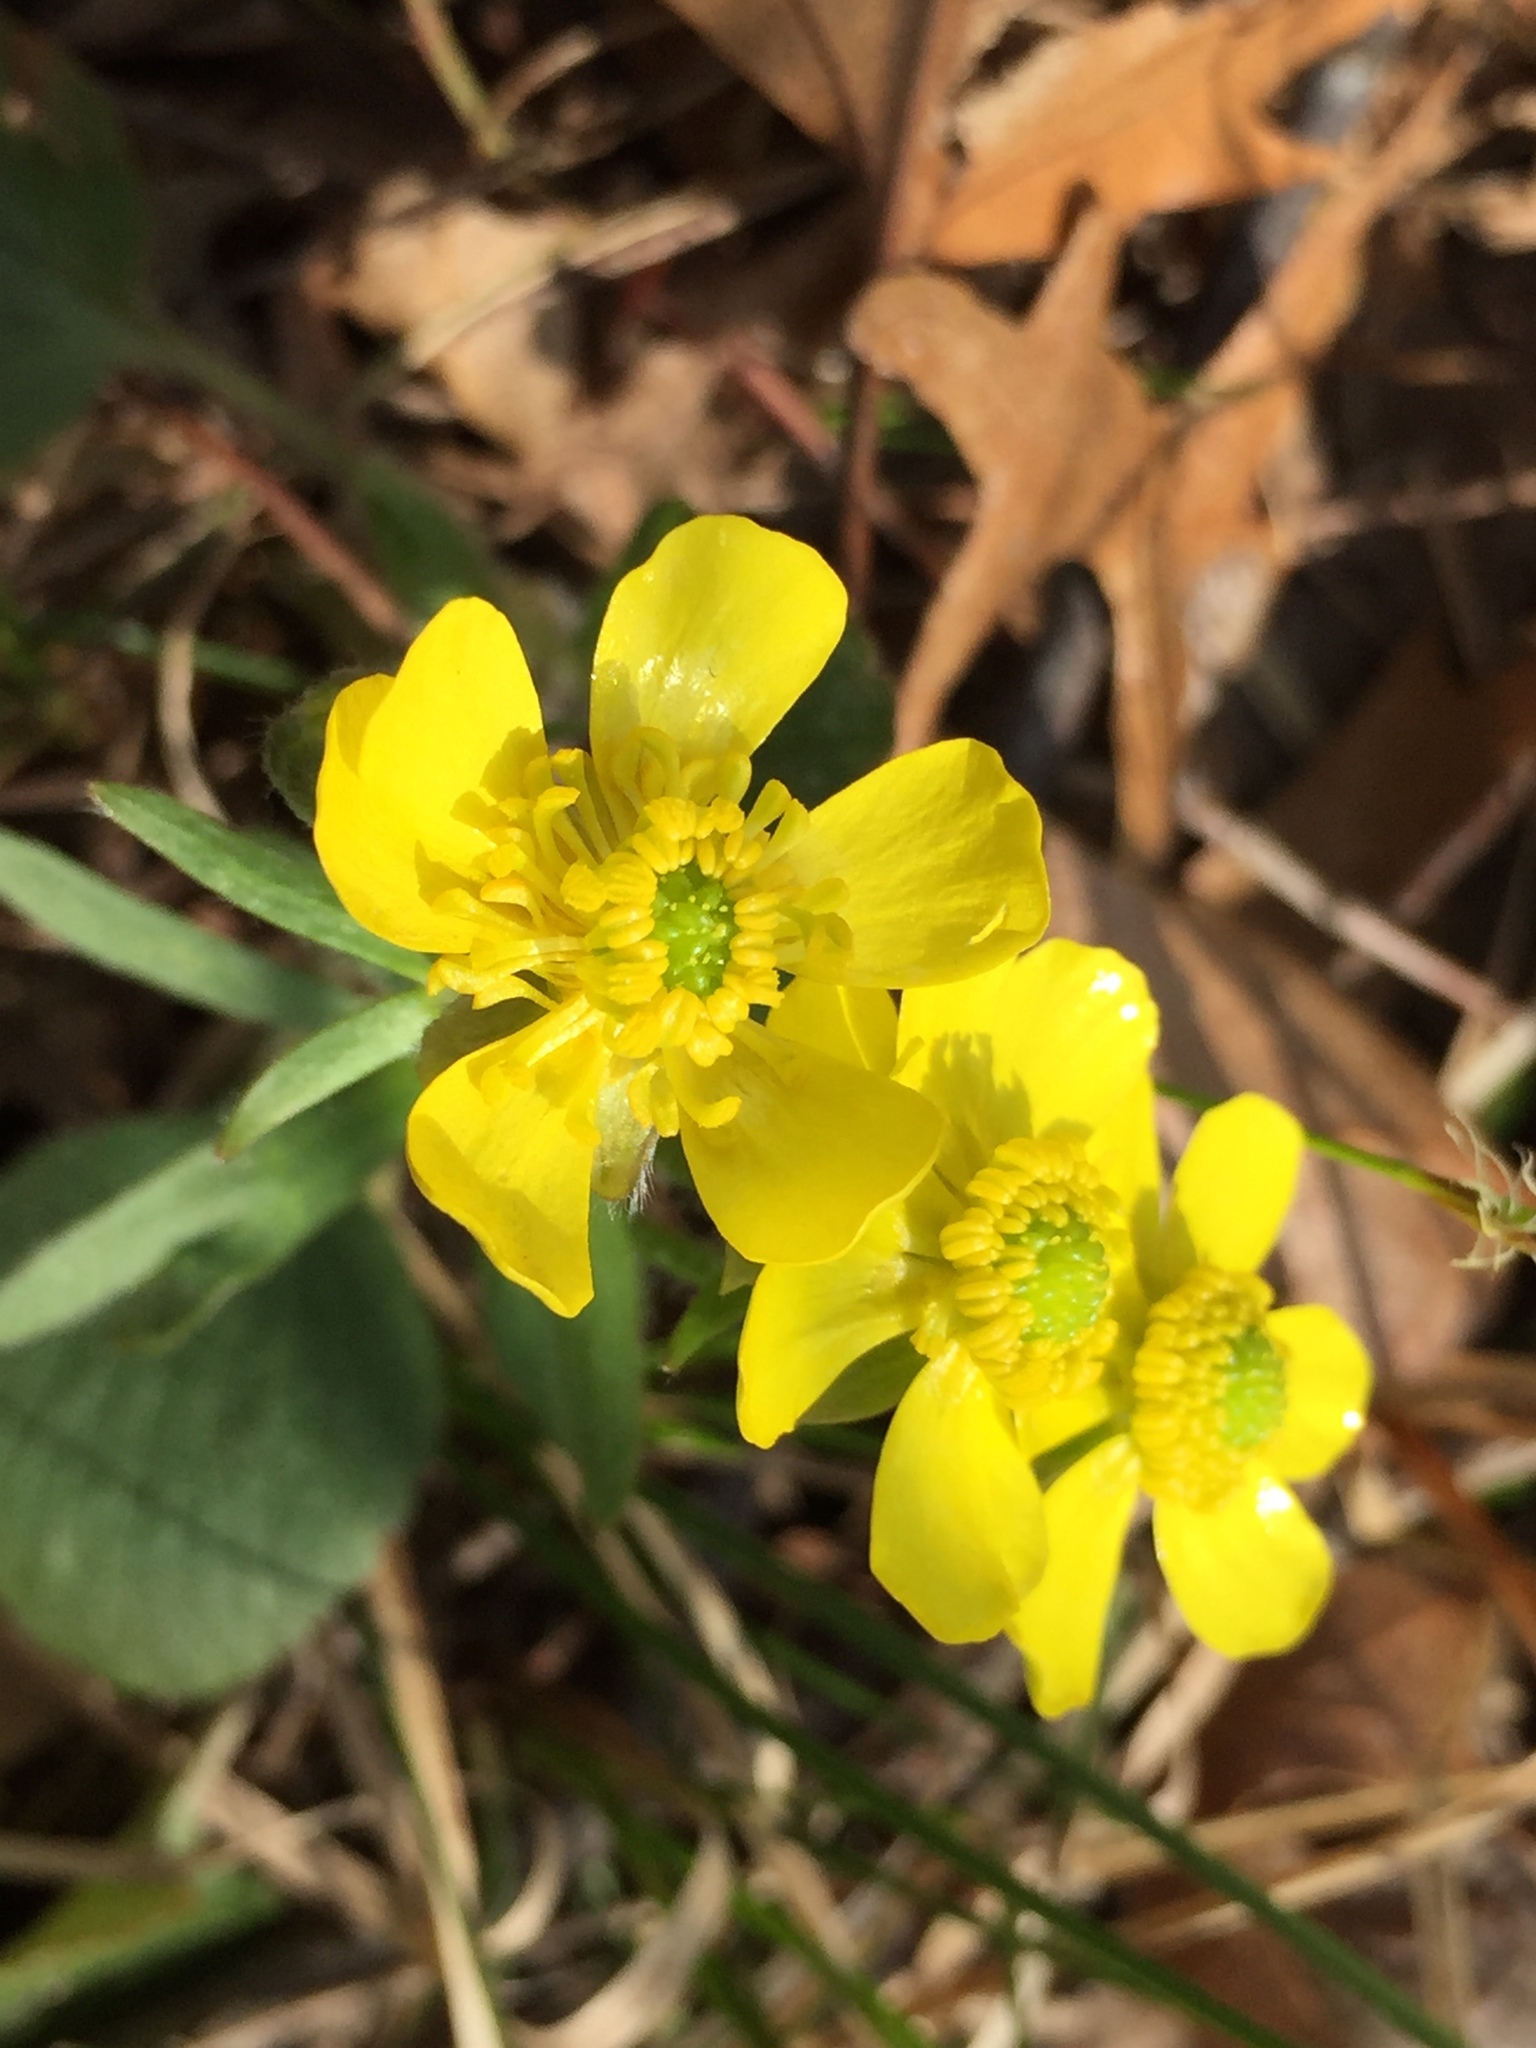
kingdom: Plantae
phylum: Tracheophyta
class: Magnoliopsida
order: Ranunculales
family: Ranunculaceae
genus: Ranunculus
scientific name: Ranunculus rhomboideus
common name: Prairie buttercup
